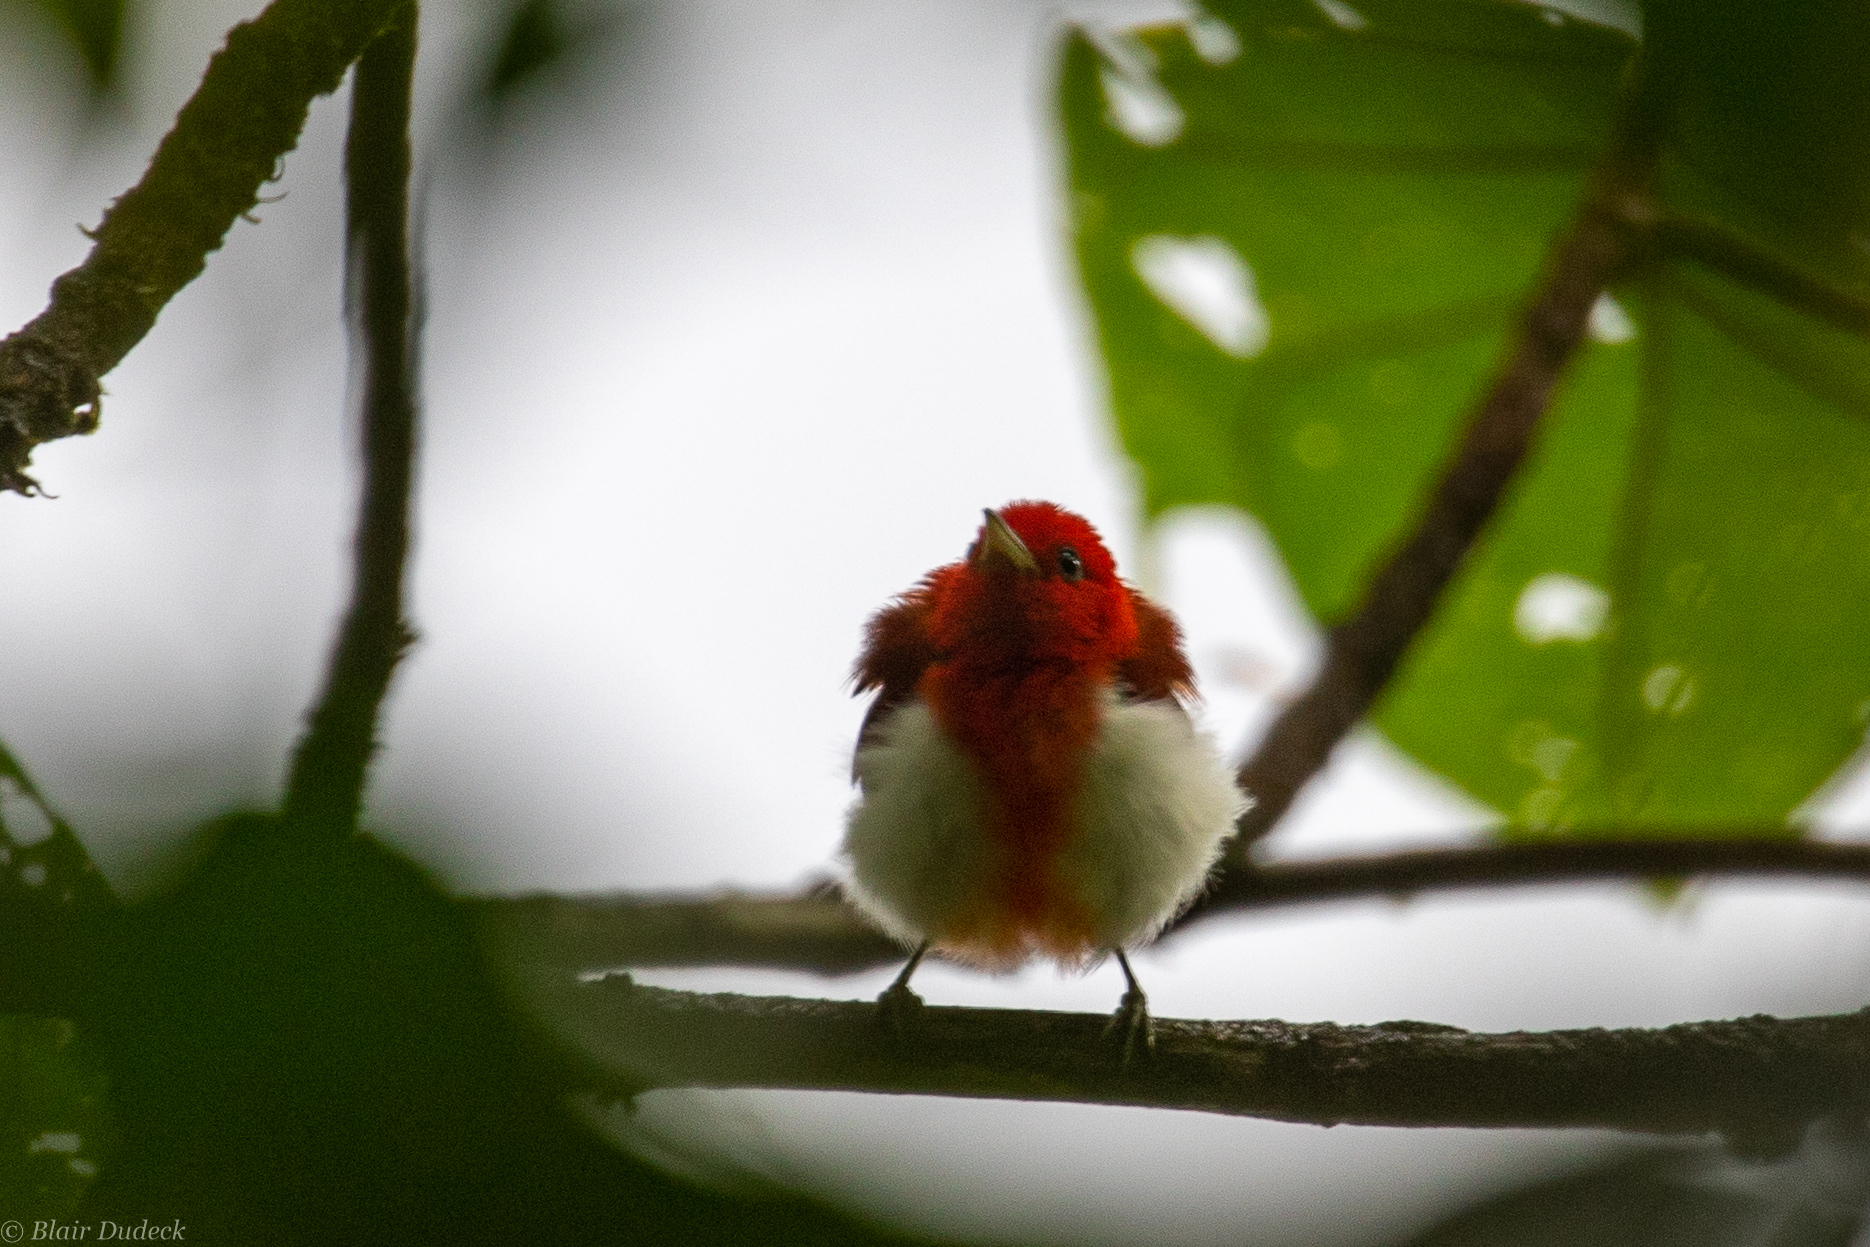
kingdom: Animalia
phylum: Chordata
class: Aves
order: Passeriformes
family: Thraupidae
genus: Chrysothlypis
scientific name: Chrysothlypis salmoni
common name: Scarlet-and-white tanager
